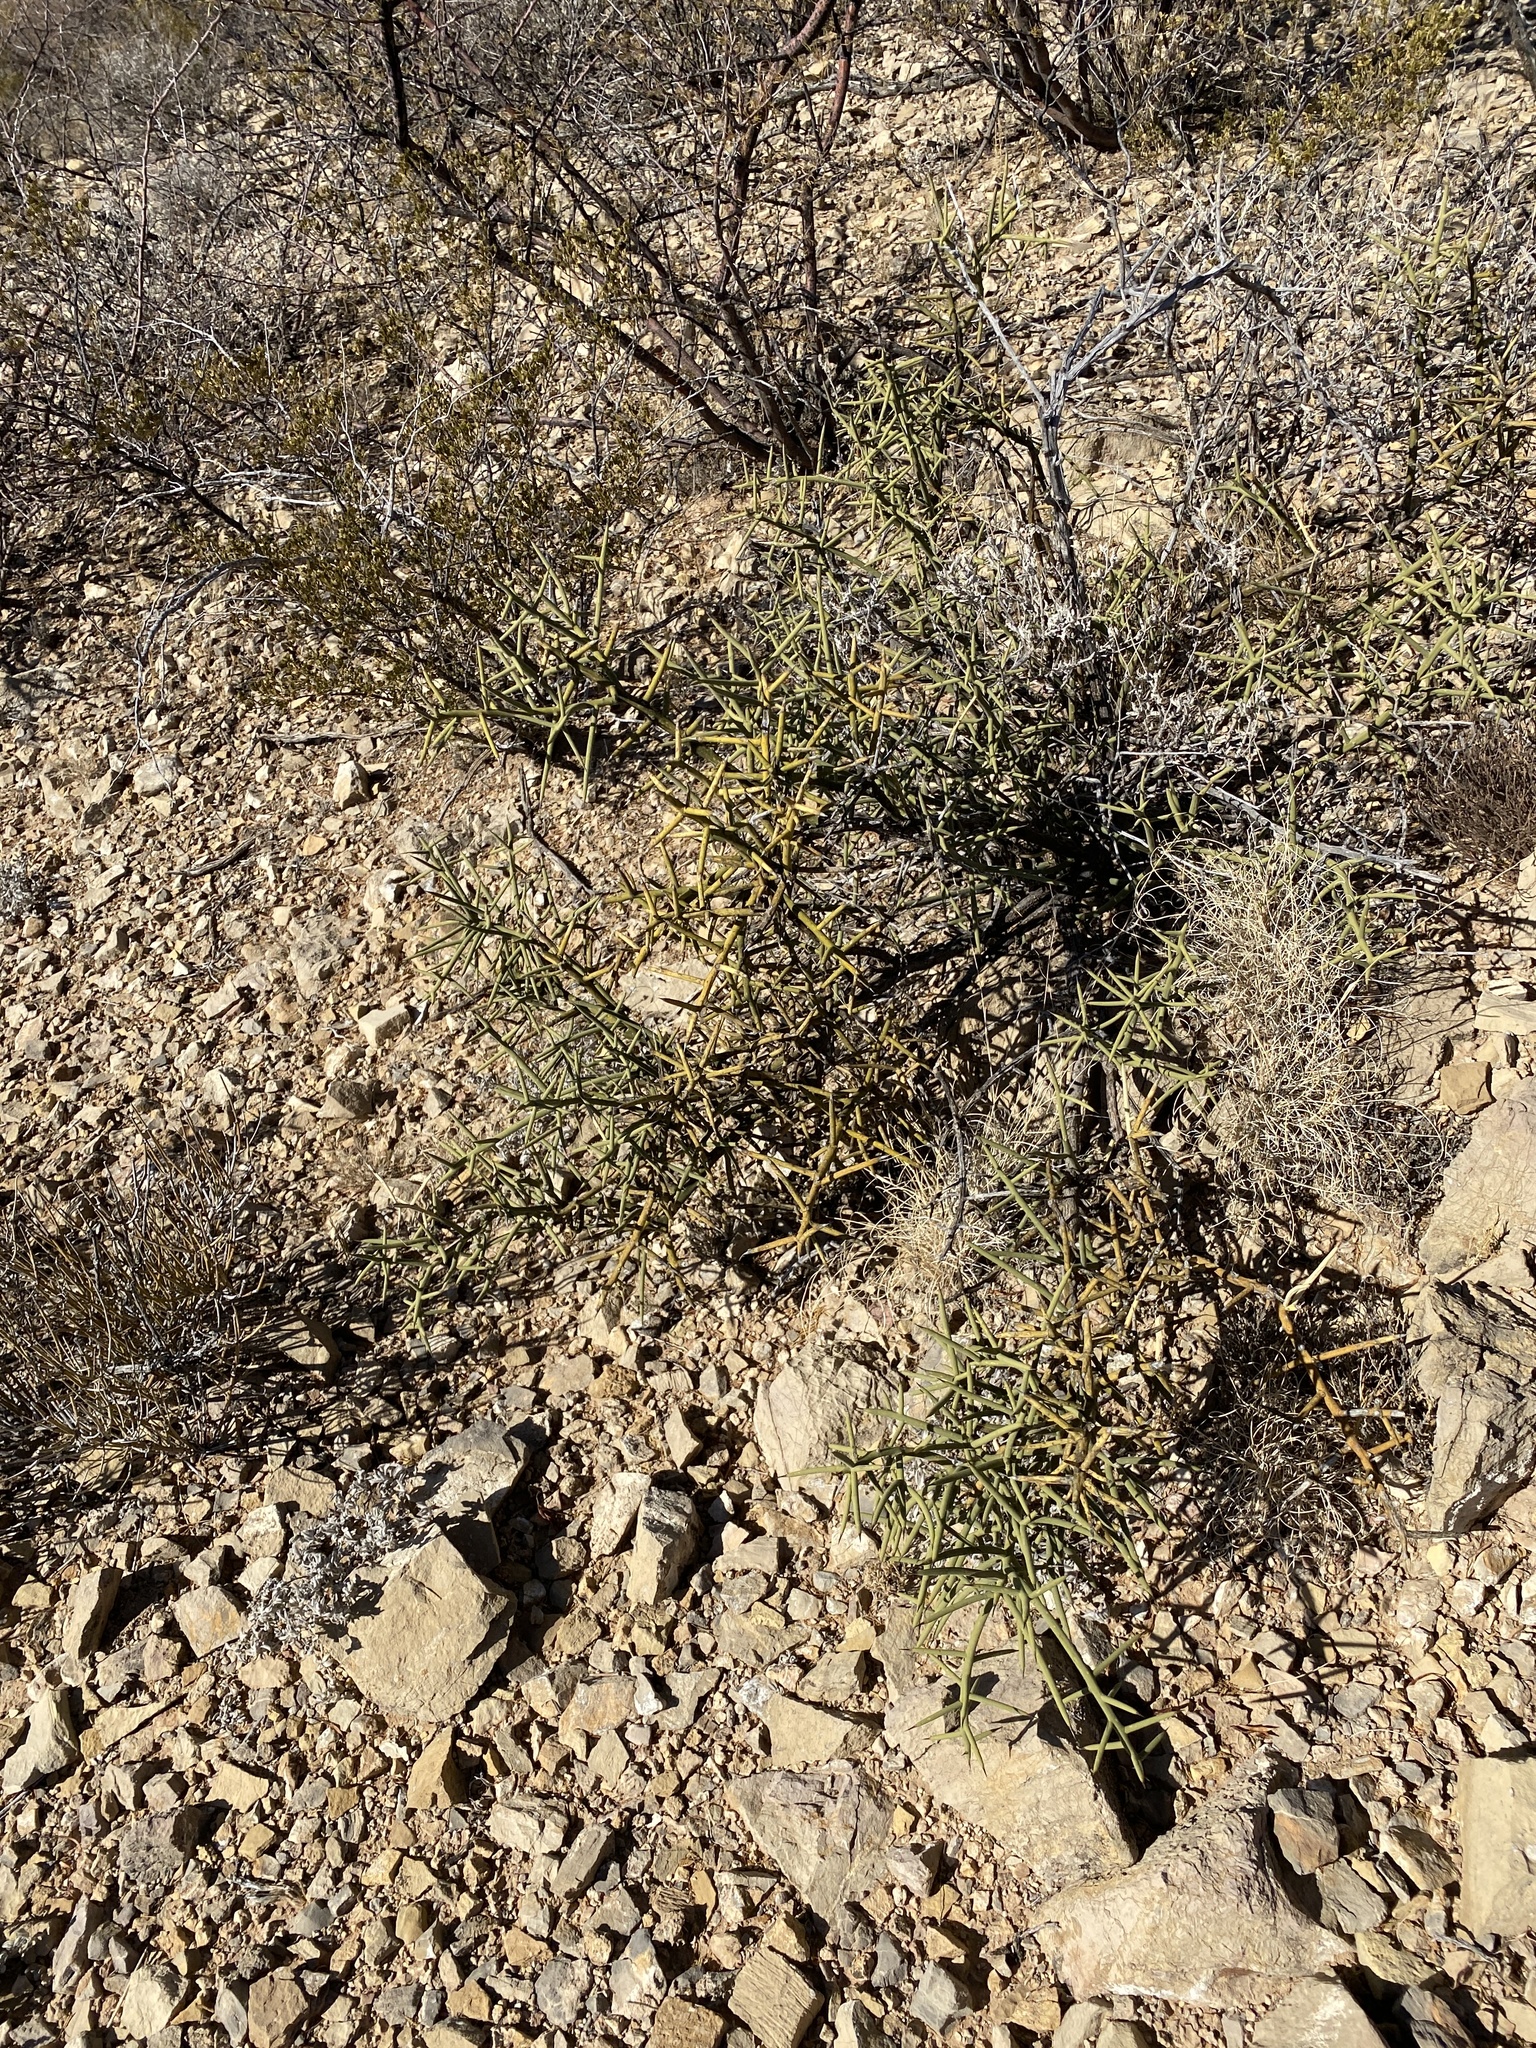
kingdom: Plantae
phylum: Tracheophyta
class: Magnoliopsida
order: Brassicales
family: Koeberliniaceae
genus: Koeberlinia
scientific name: Koeberlinia spinosa
